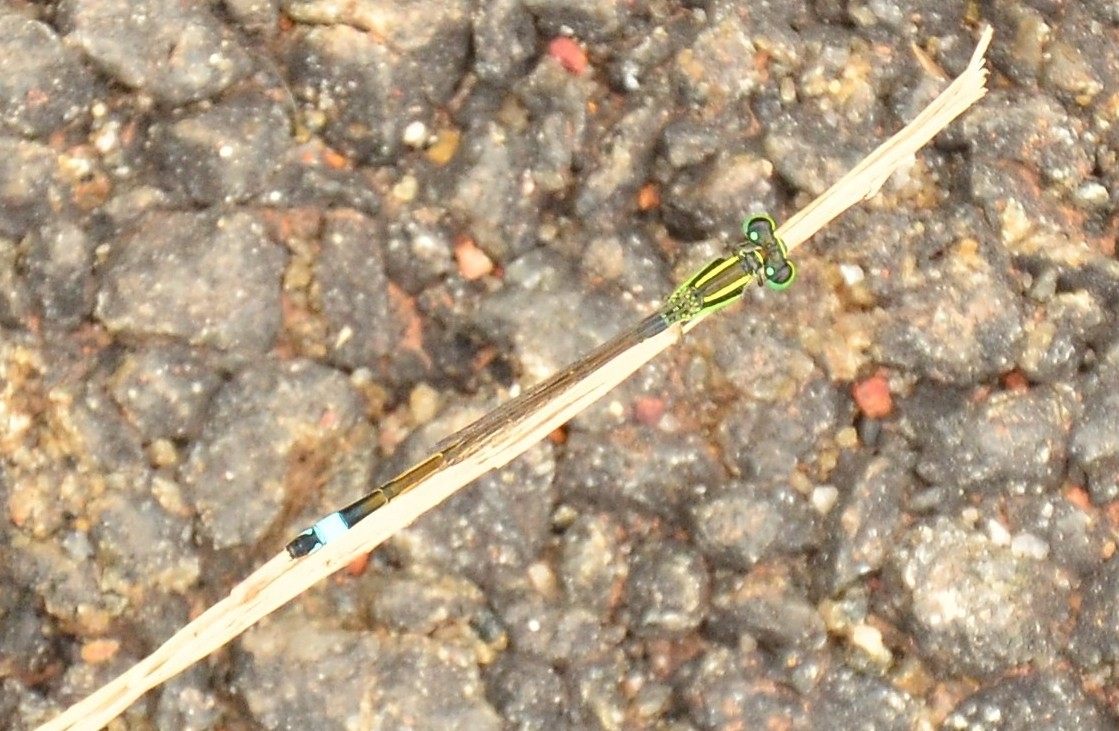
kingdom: Animalia
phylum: Arthropoda
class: Insecta
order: Odonata
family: Coenagrionidae
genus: Ischnura
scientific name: Ischnura senegalensis
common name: Tropical bluetail
